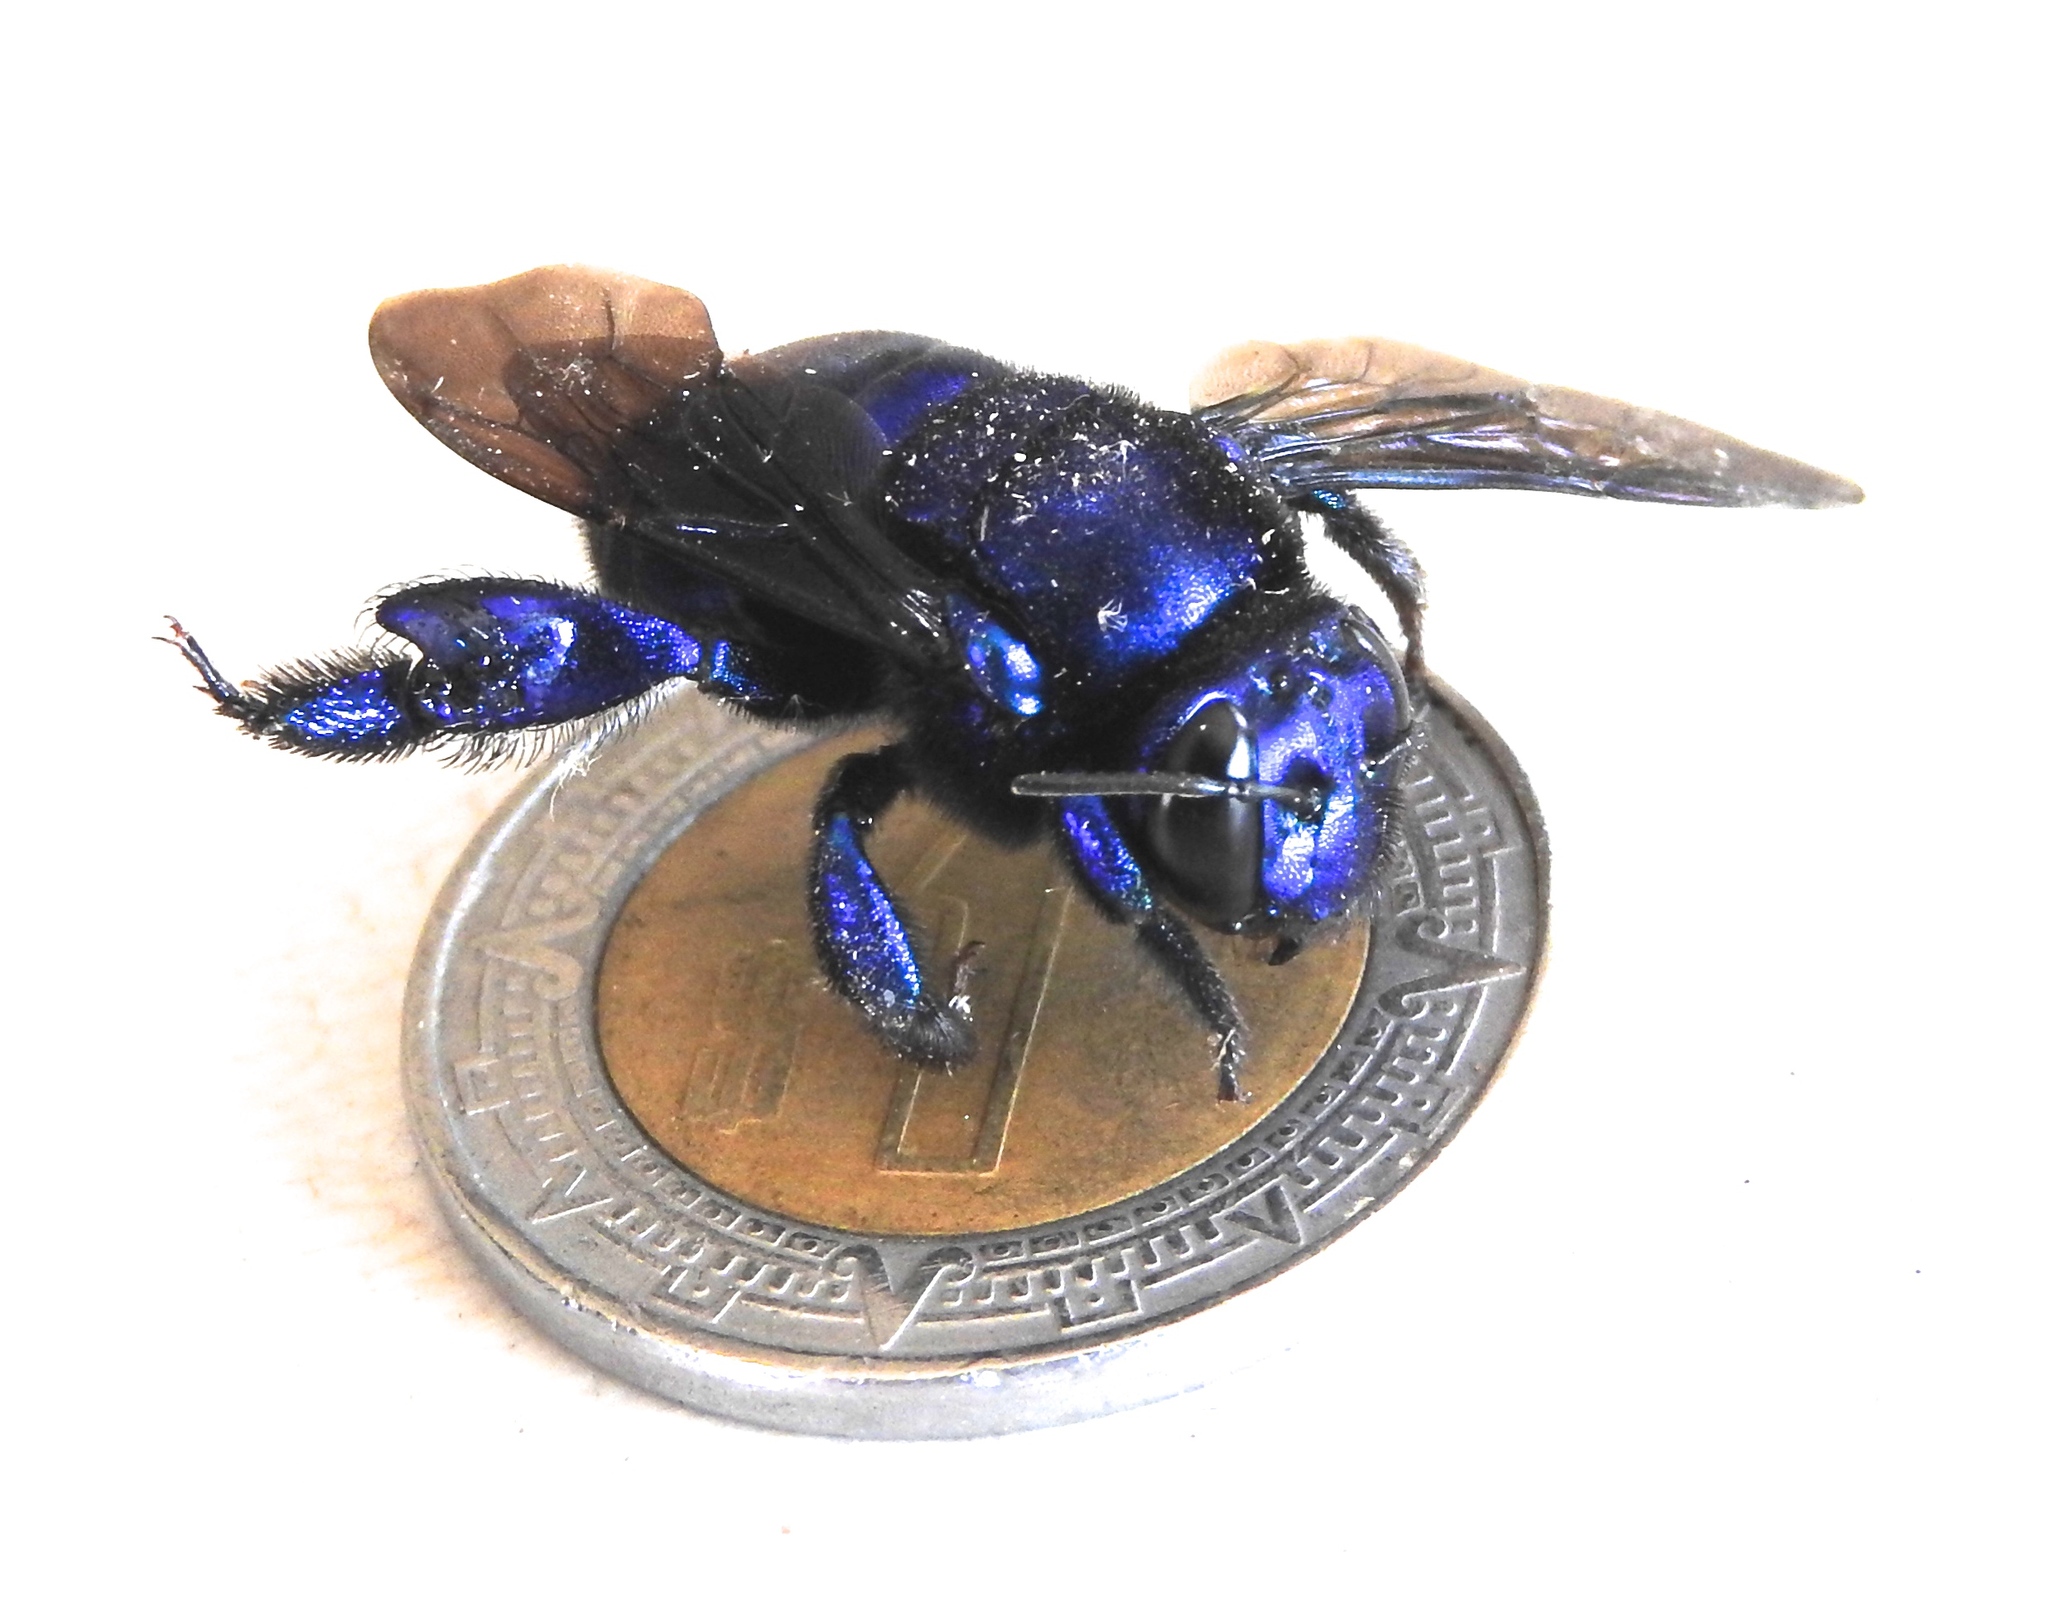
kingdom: Animalia
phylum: Arthropoda
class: Insecta
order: Hymenoptera
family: Apidae
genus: Eufriesea
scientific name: Eufriesea
